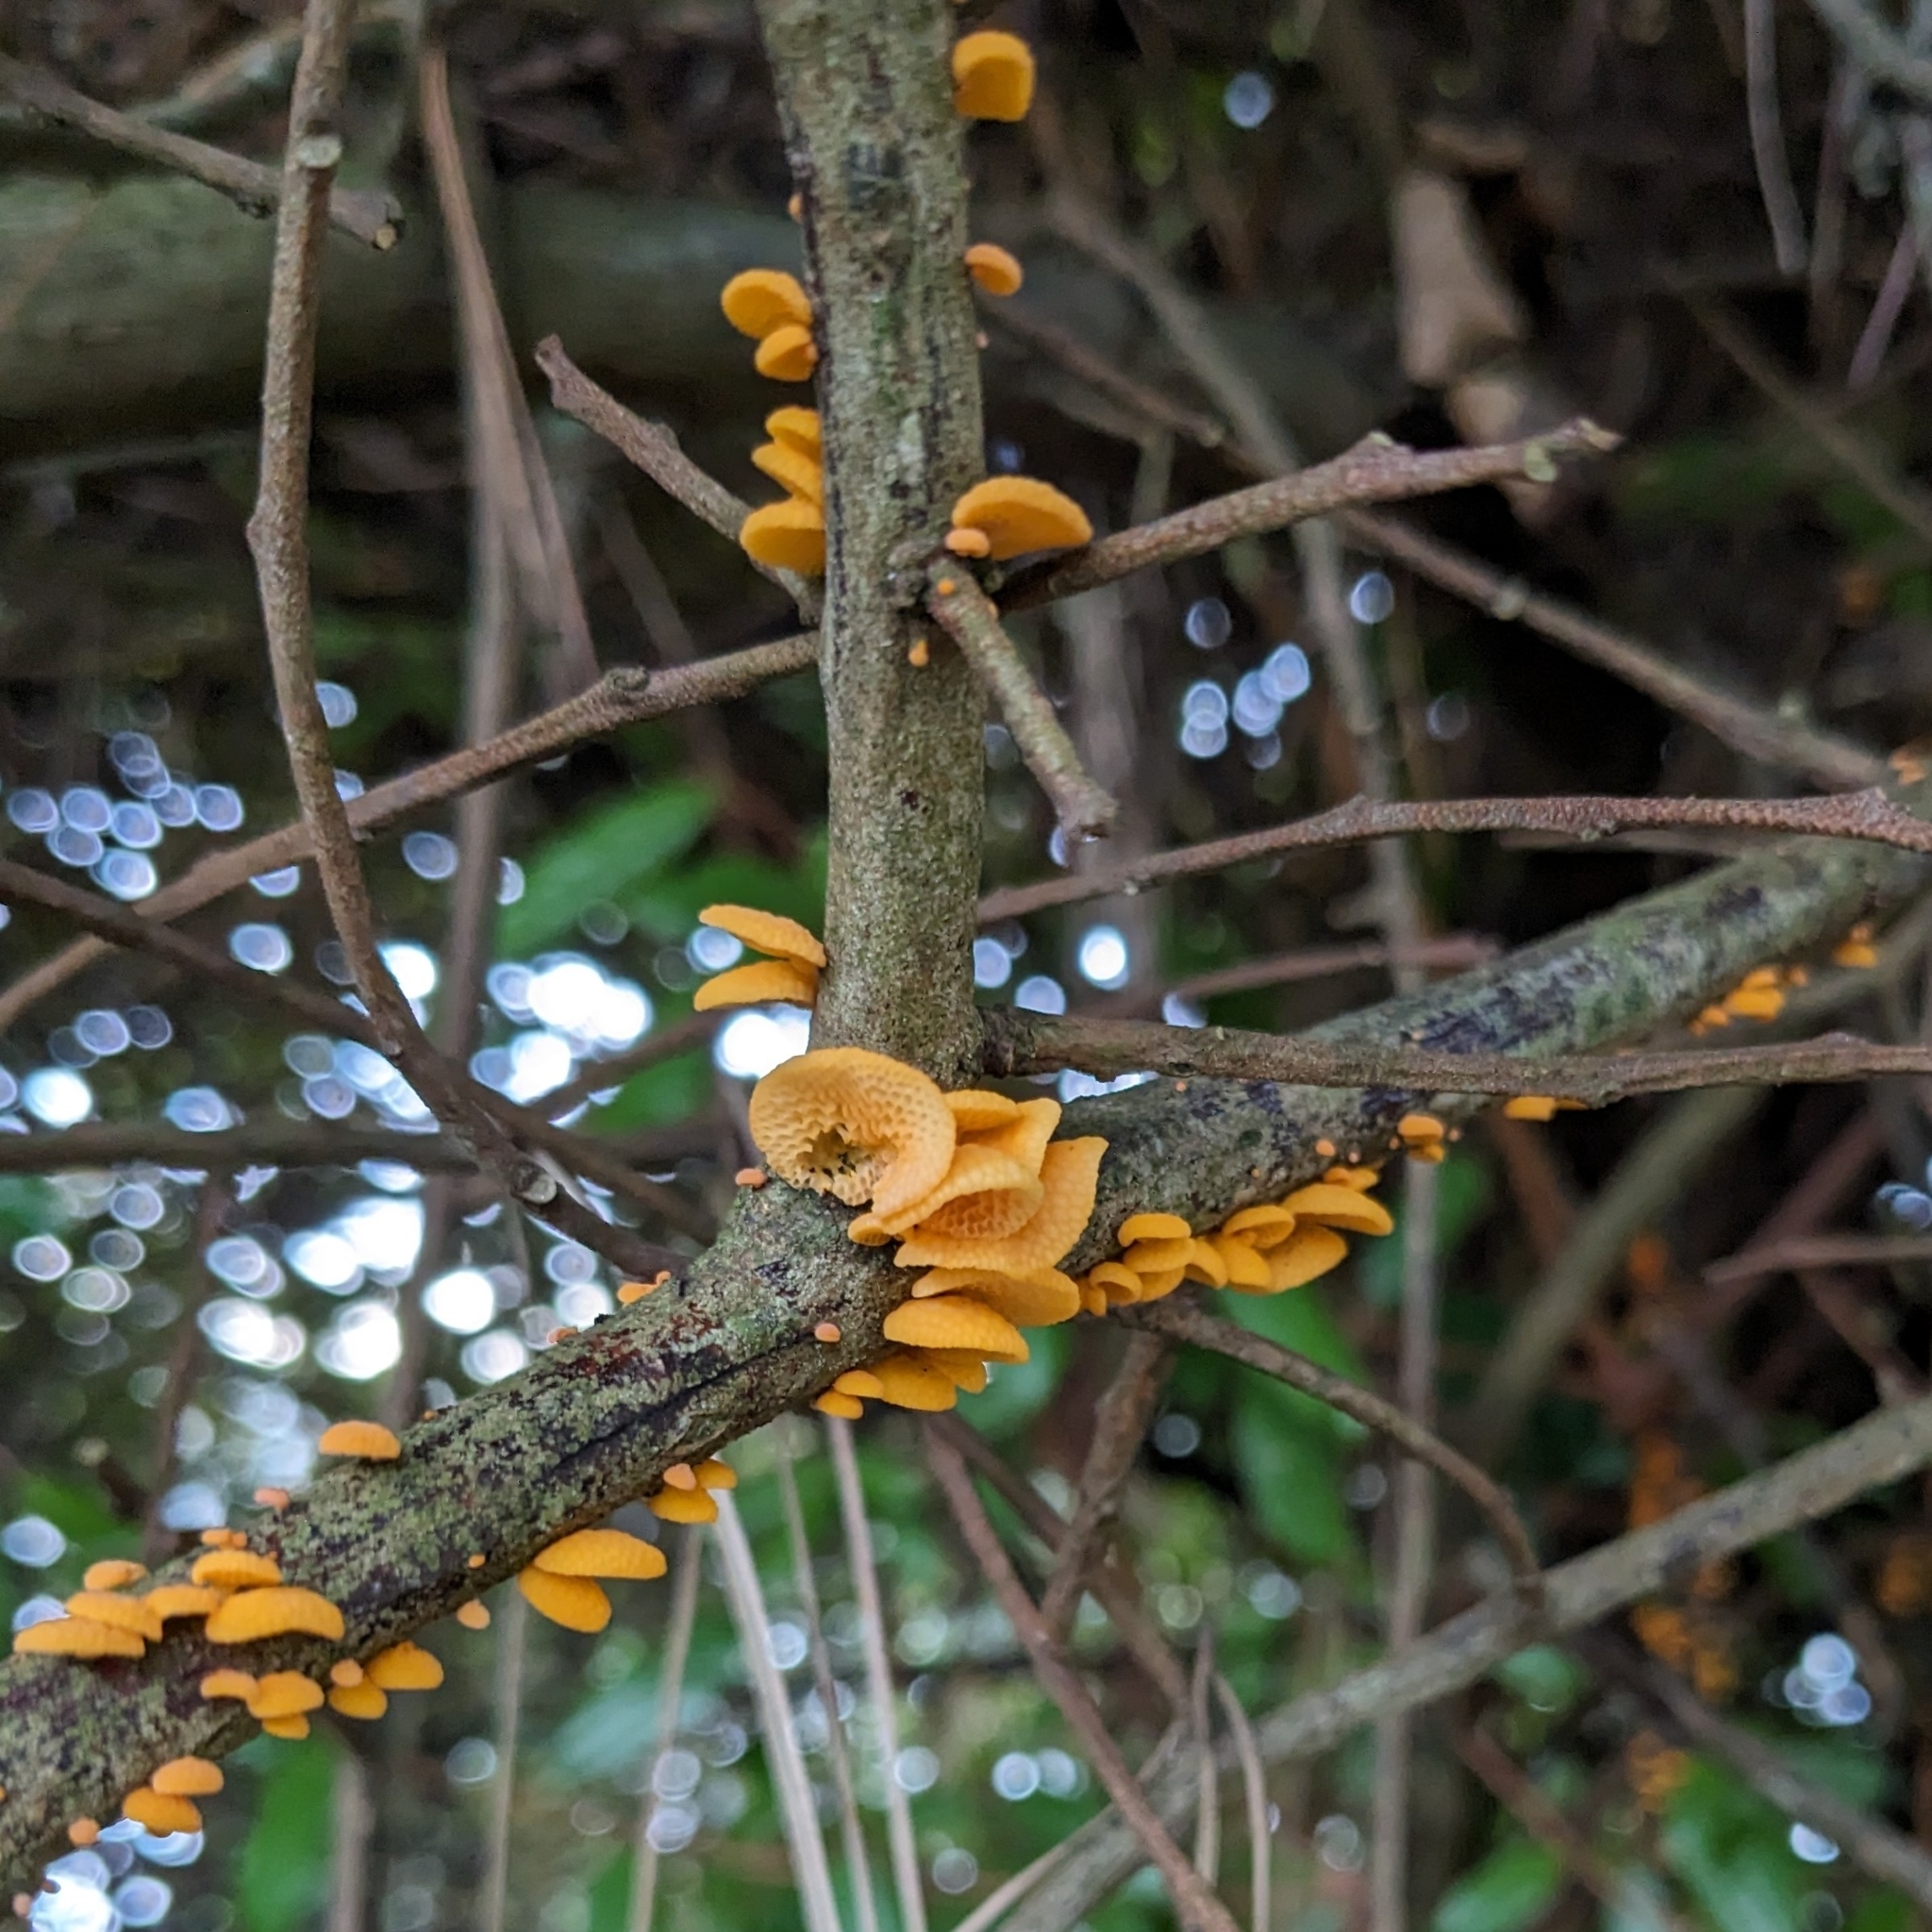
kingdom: Fungi
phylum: Basidiomycota
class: Agaricomycetes
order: Agaricales
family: Mycenaceae
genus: Favolaschia
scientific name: Favolaschia claudopus
